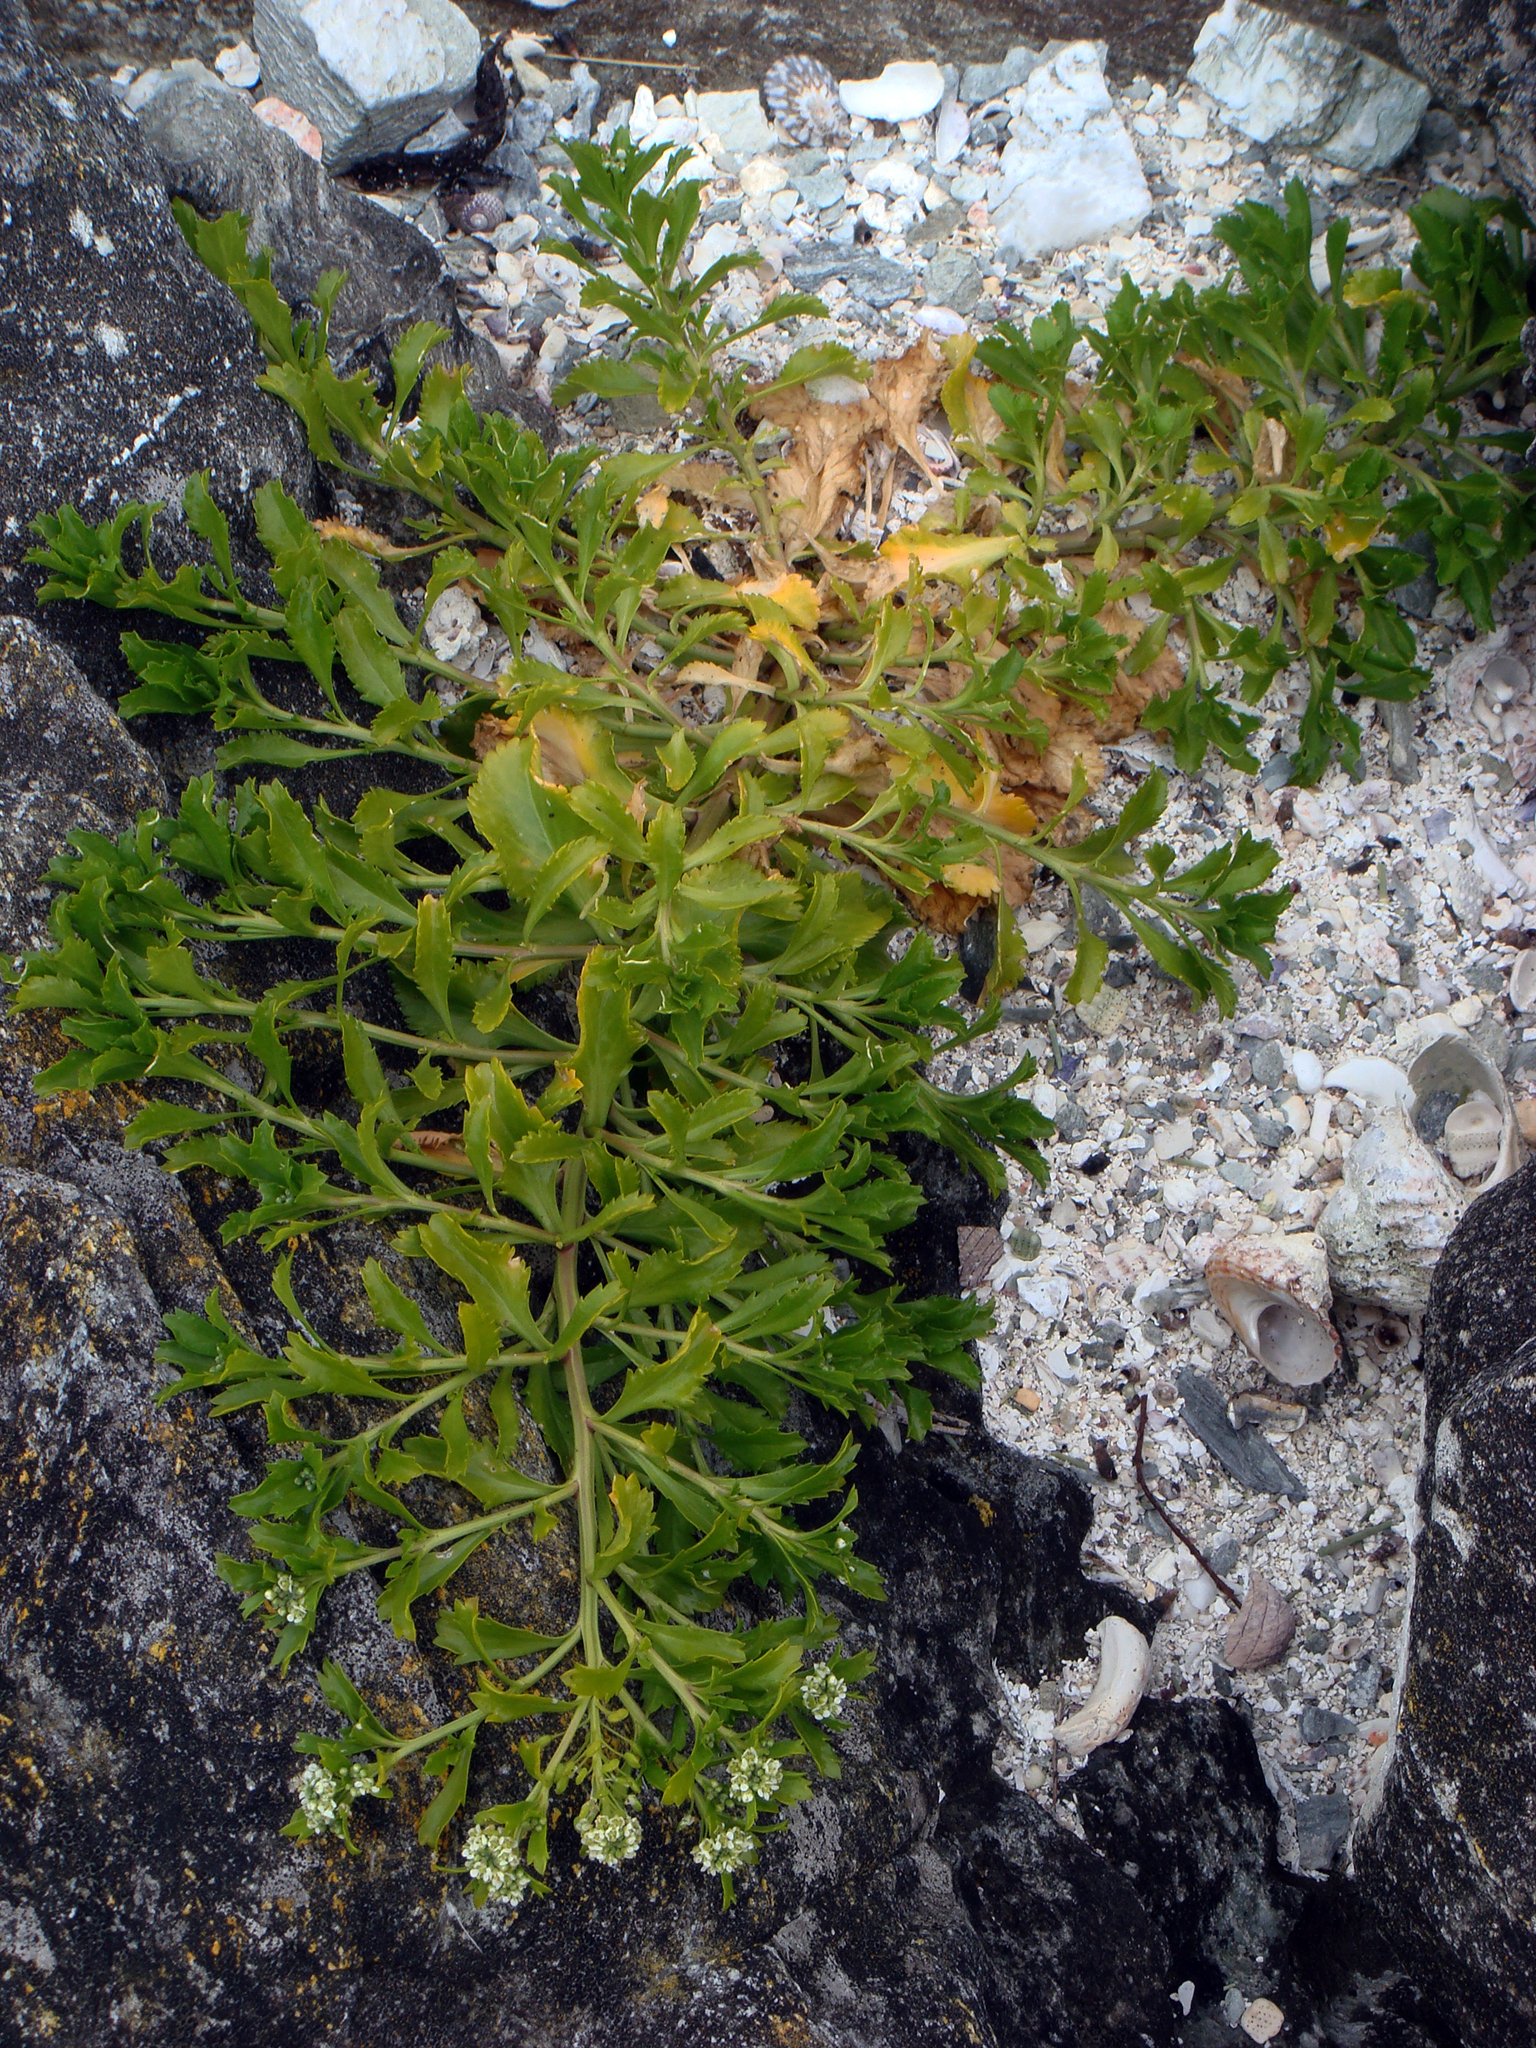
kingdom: Plantae
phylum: Tracheophyta
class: Magnoliopsida
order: Brassicales
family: Brassicaceae
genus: Lepidium
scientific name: Lepidium rekohuense
